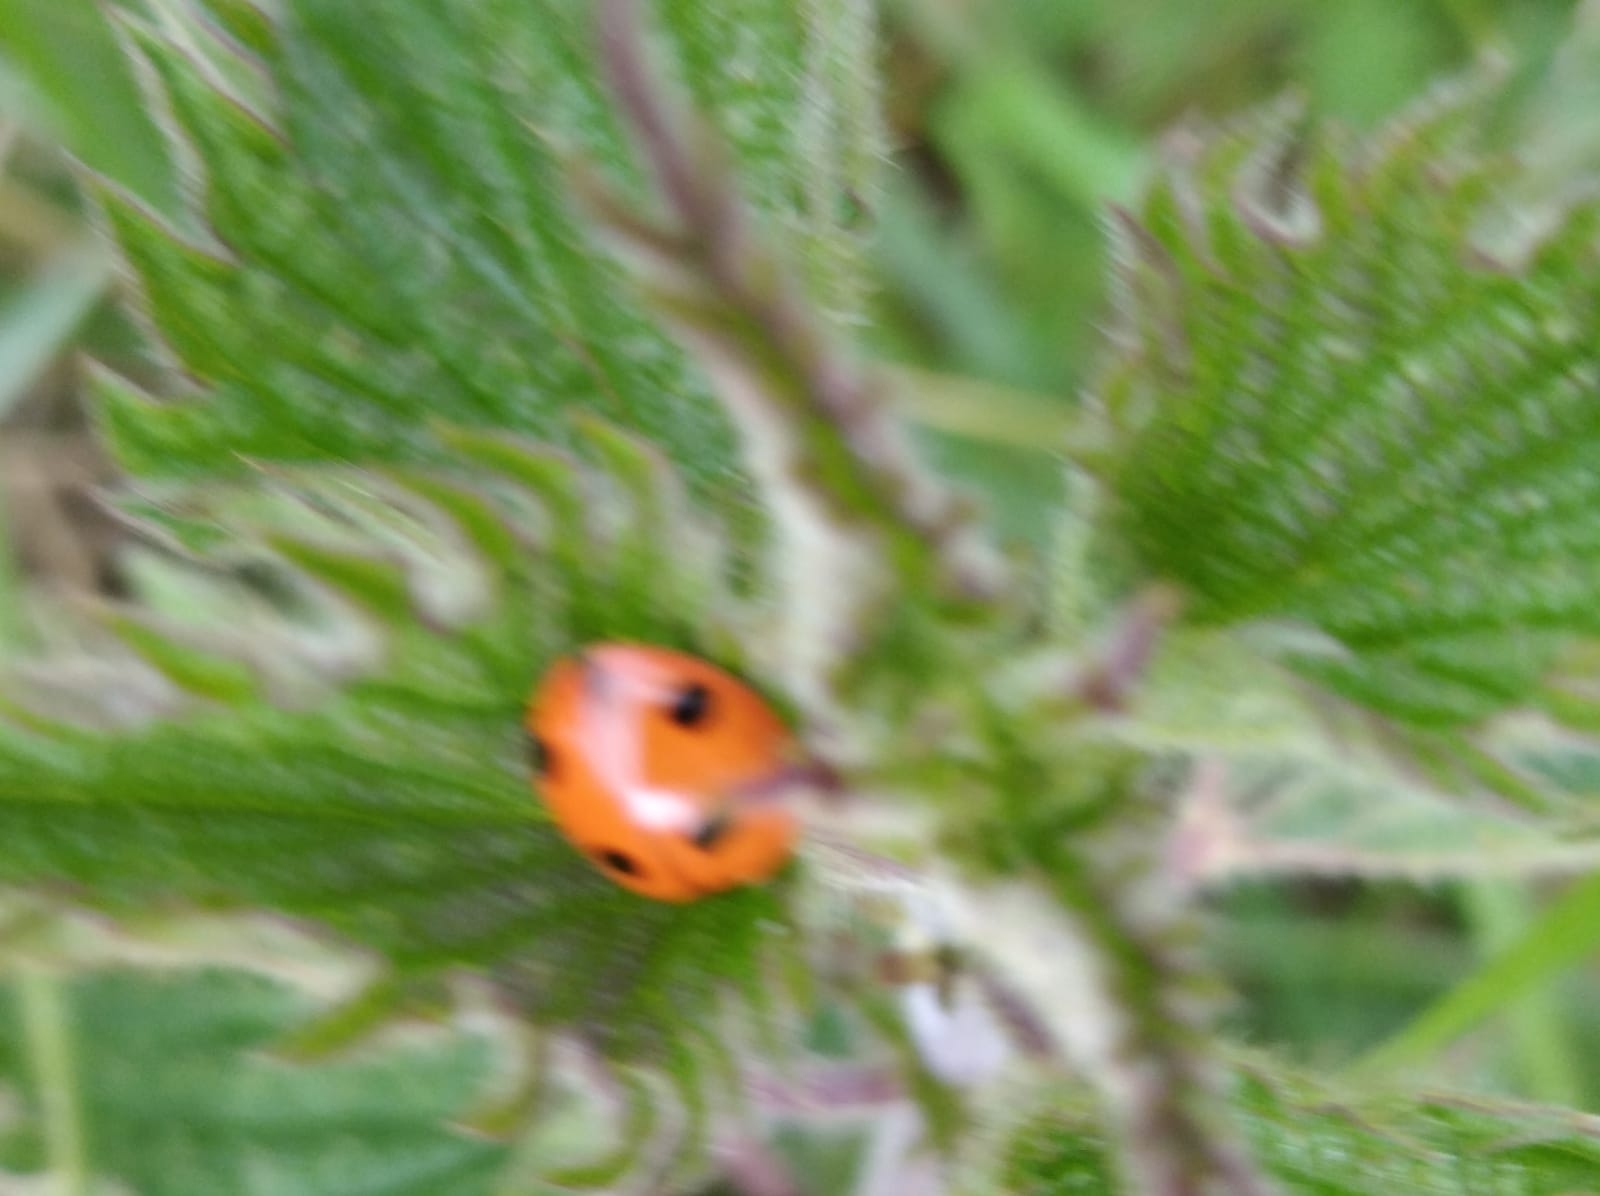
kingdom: Animalia
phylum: Arthropoda
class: Insecta
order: Coleoptera
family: Coccinellidae
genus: Coccinella
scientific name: Coccinella septempunctata
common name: Sevenspotted lady beetle
